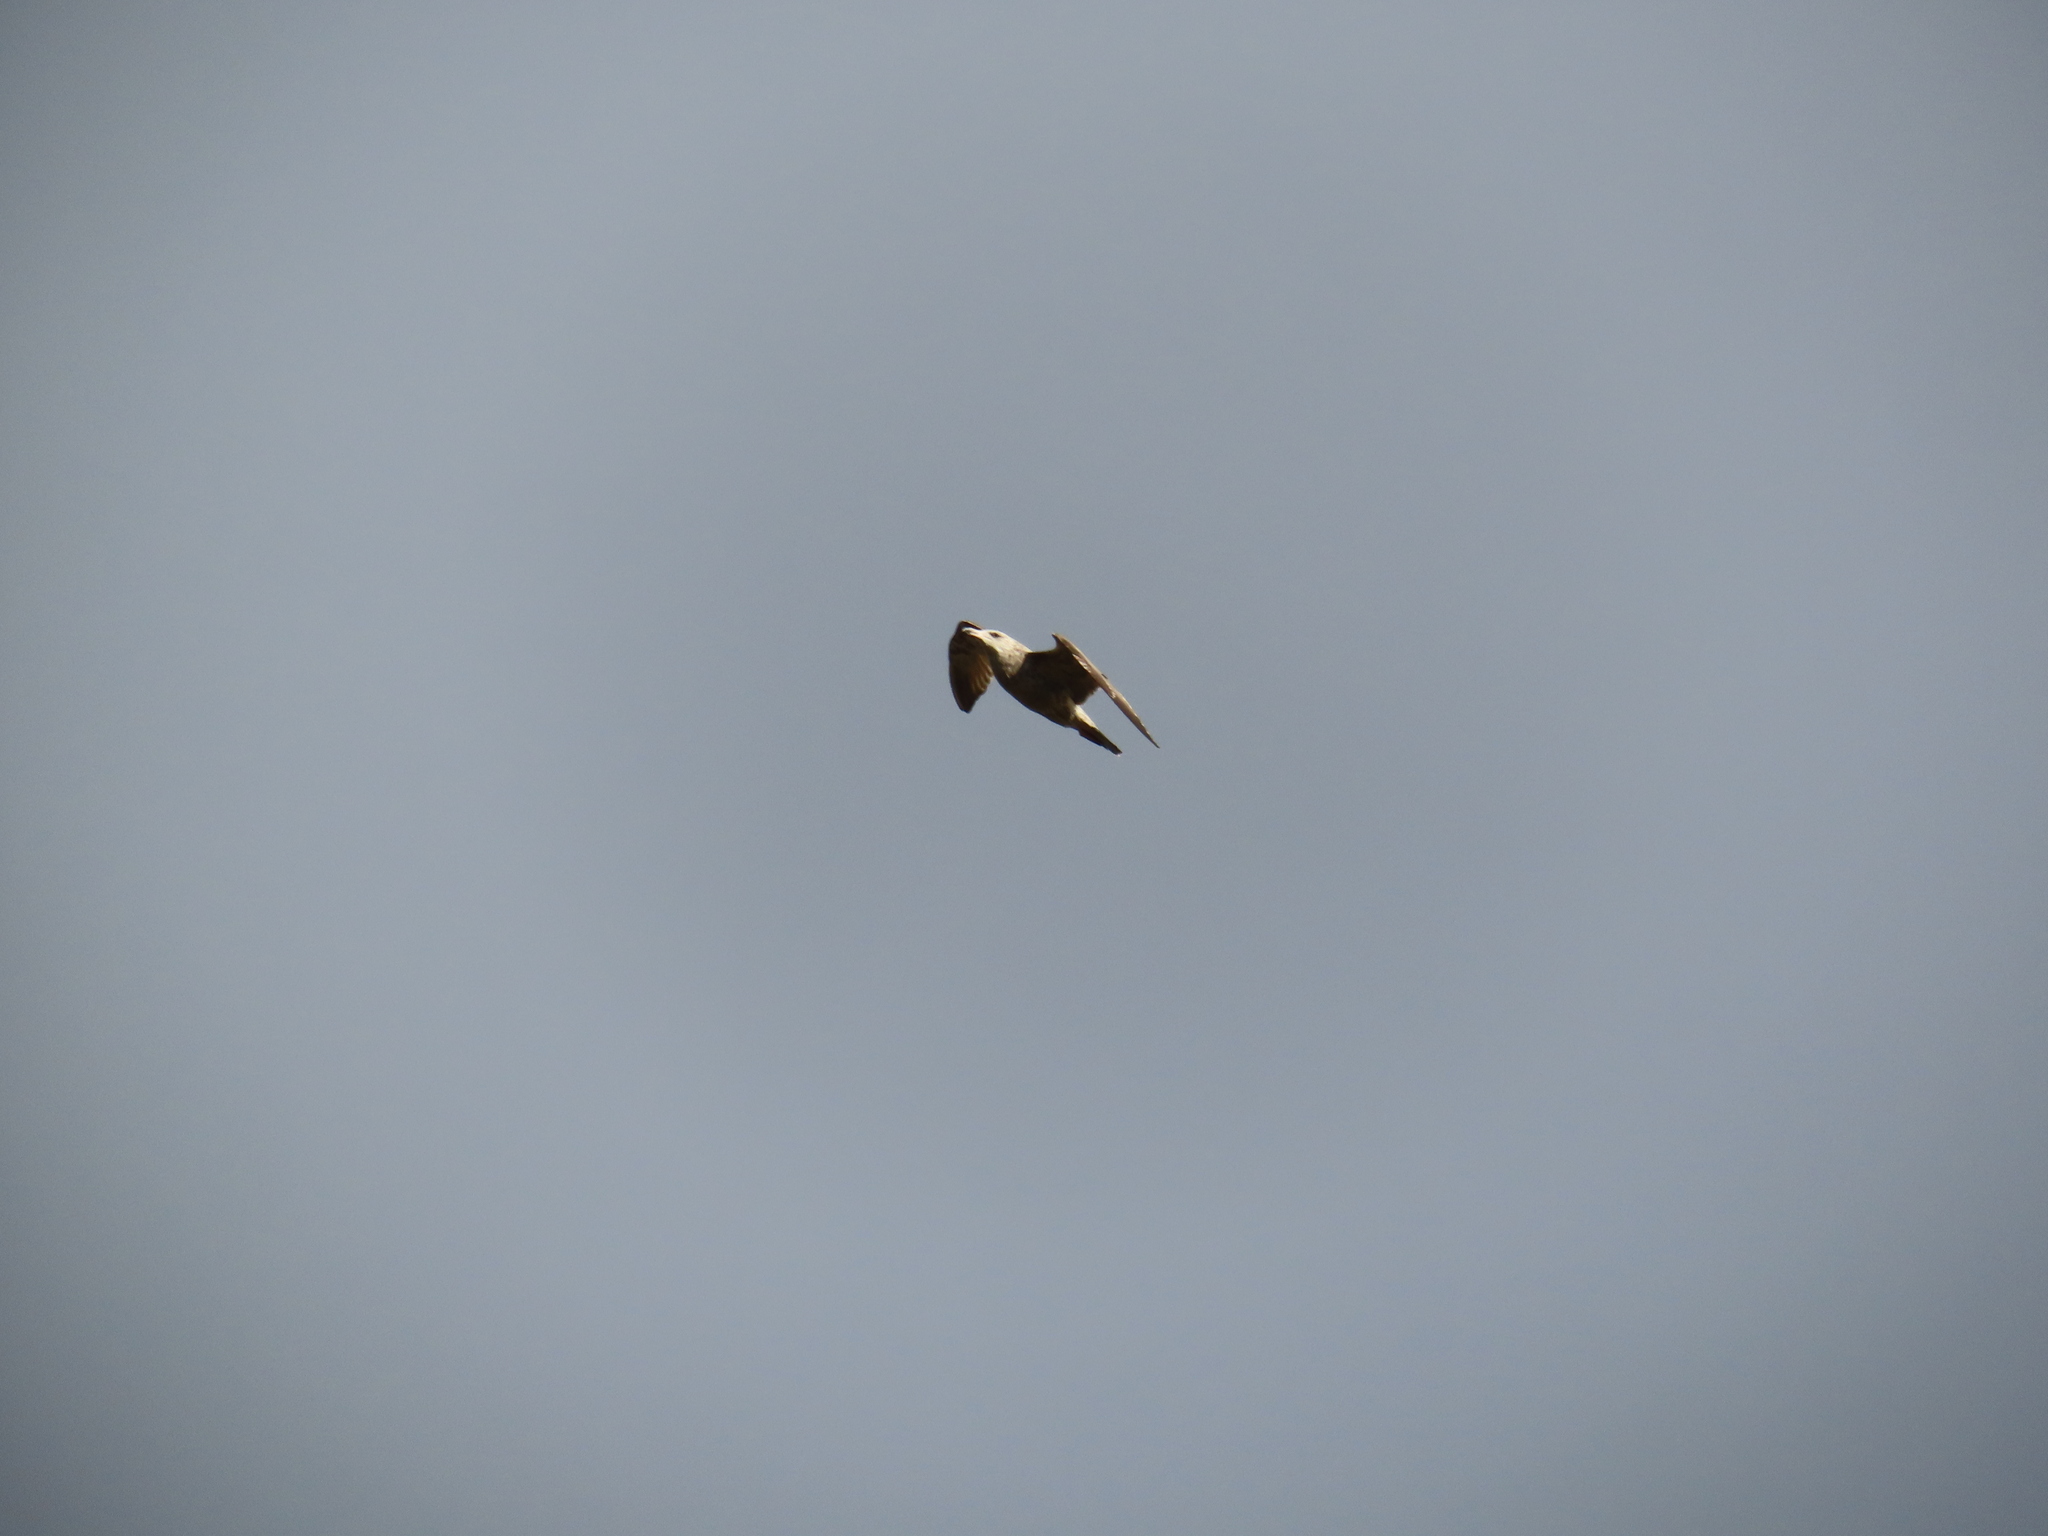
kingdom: Animalia
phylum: Chordata
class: Aves
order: Charadriiformes
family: Laridae
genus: Larus
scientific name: Larus argentatus
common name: Herring gull
